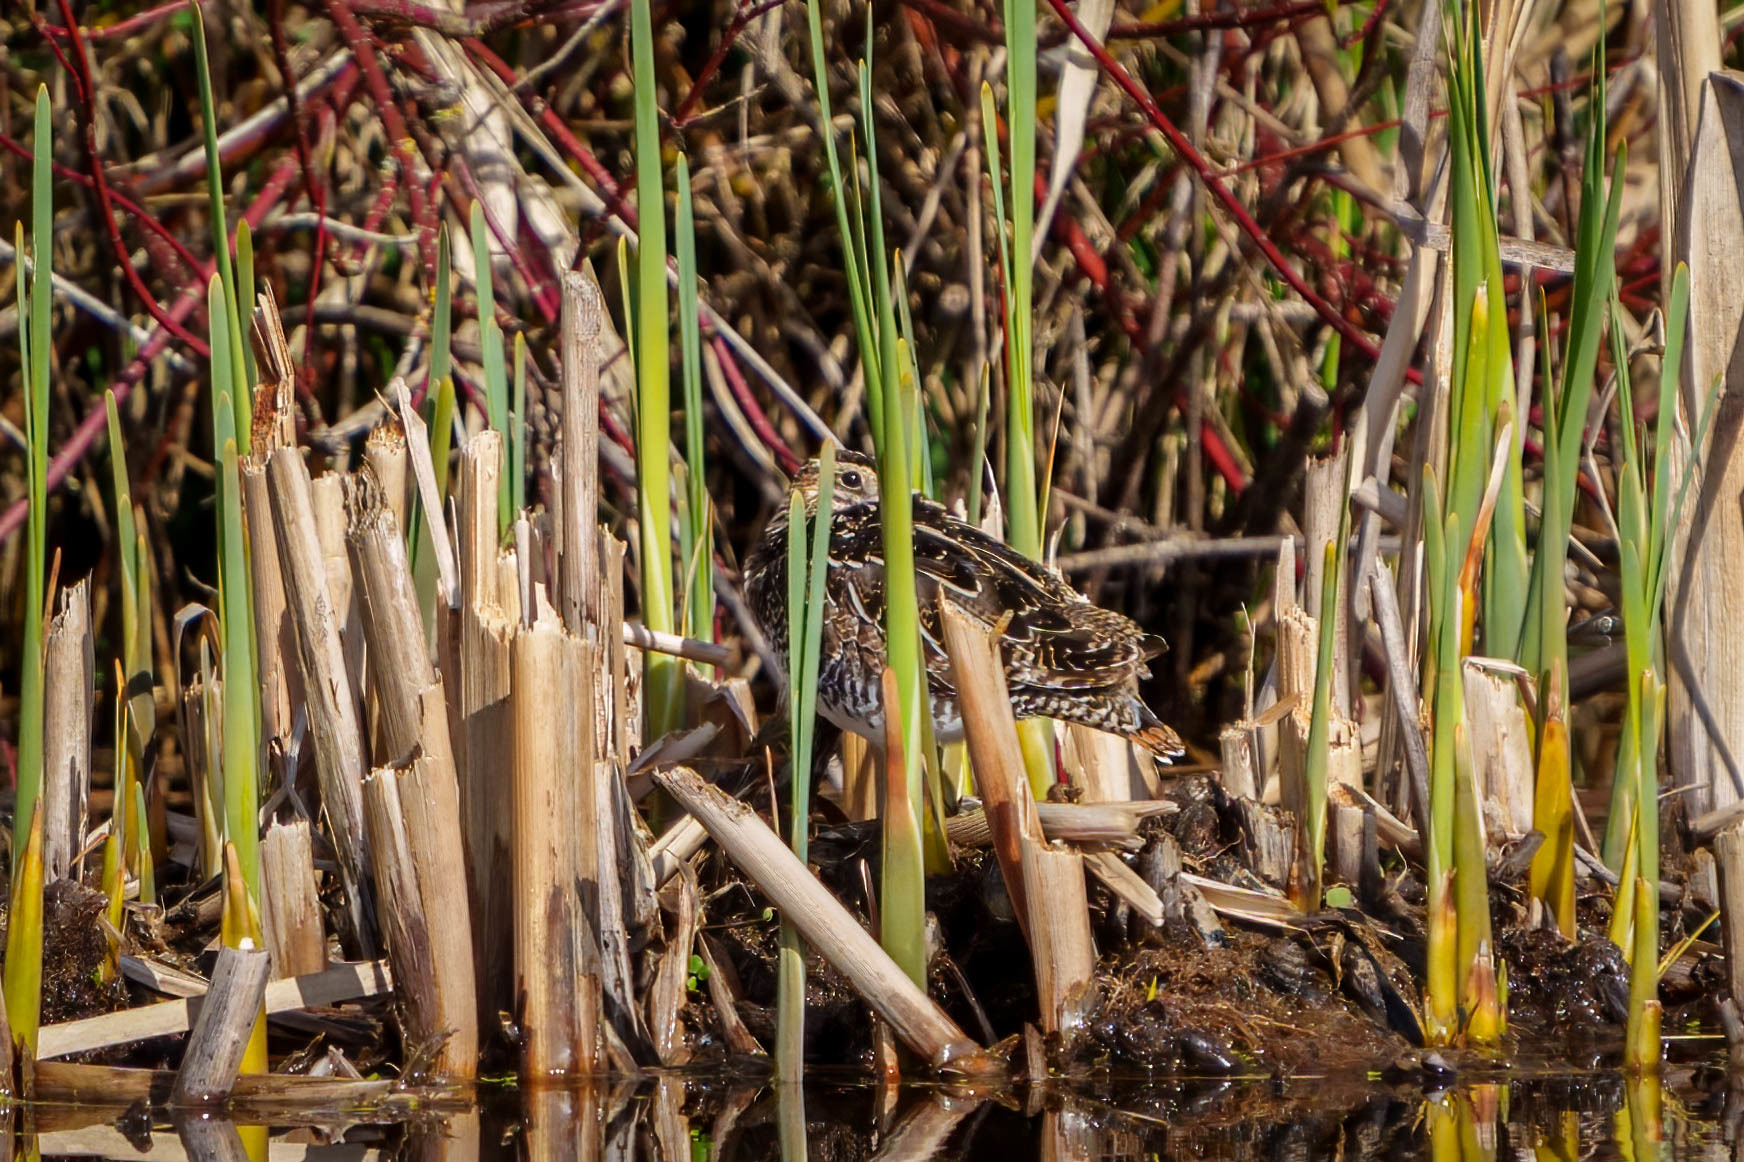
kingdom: Animalia
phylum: Chordata
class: Aves
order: Charadriiformes
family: Scolopacidae
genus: Gallinago
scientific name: Gallinago delicata
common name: Wilson's snipe
